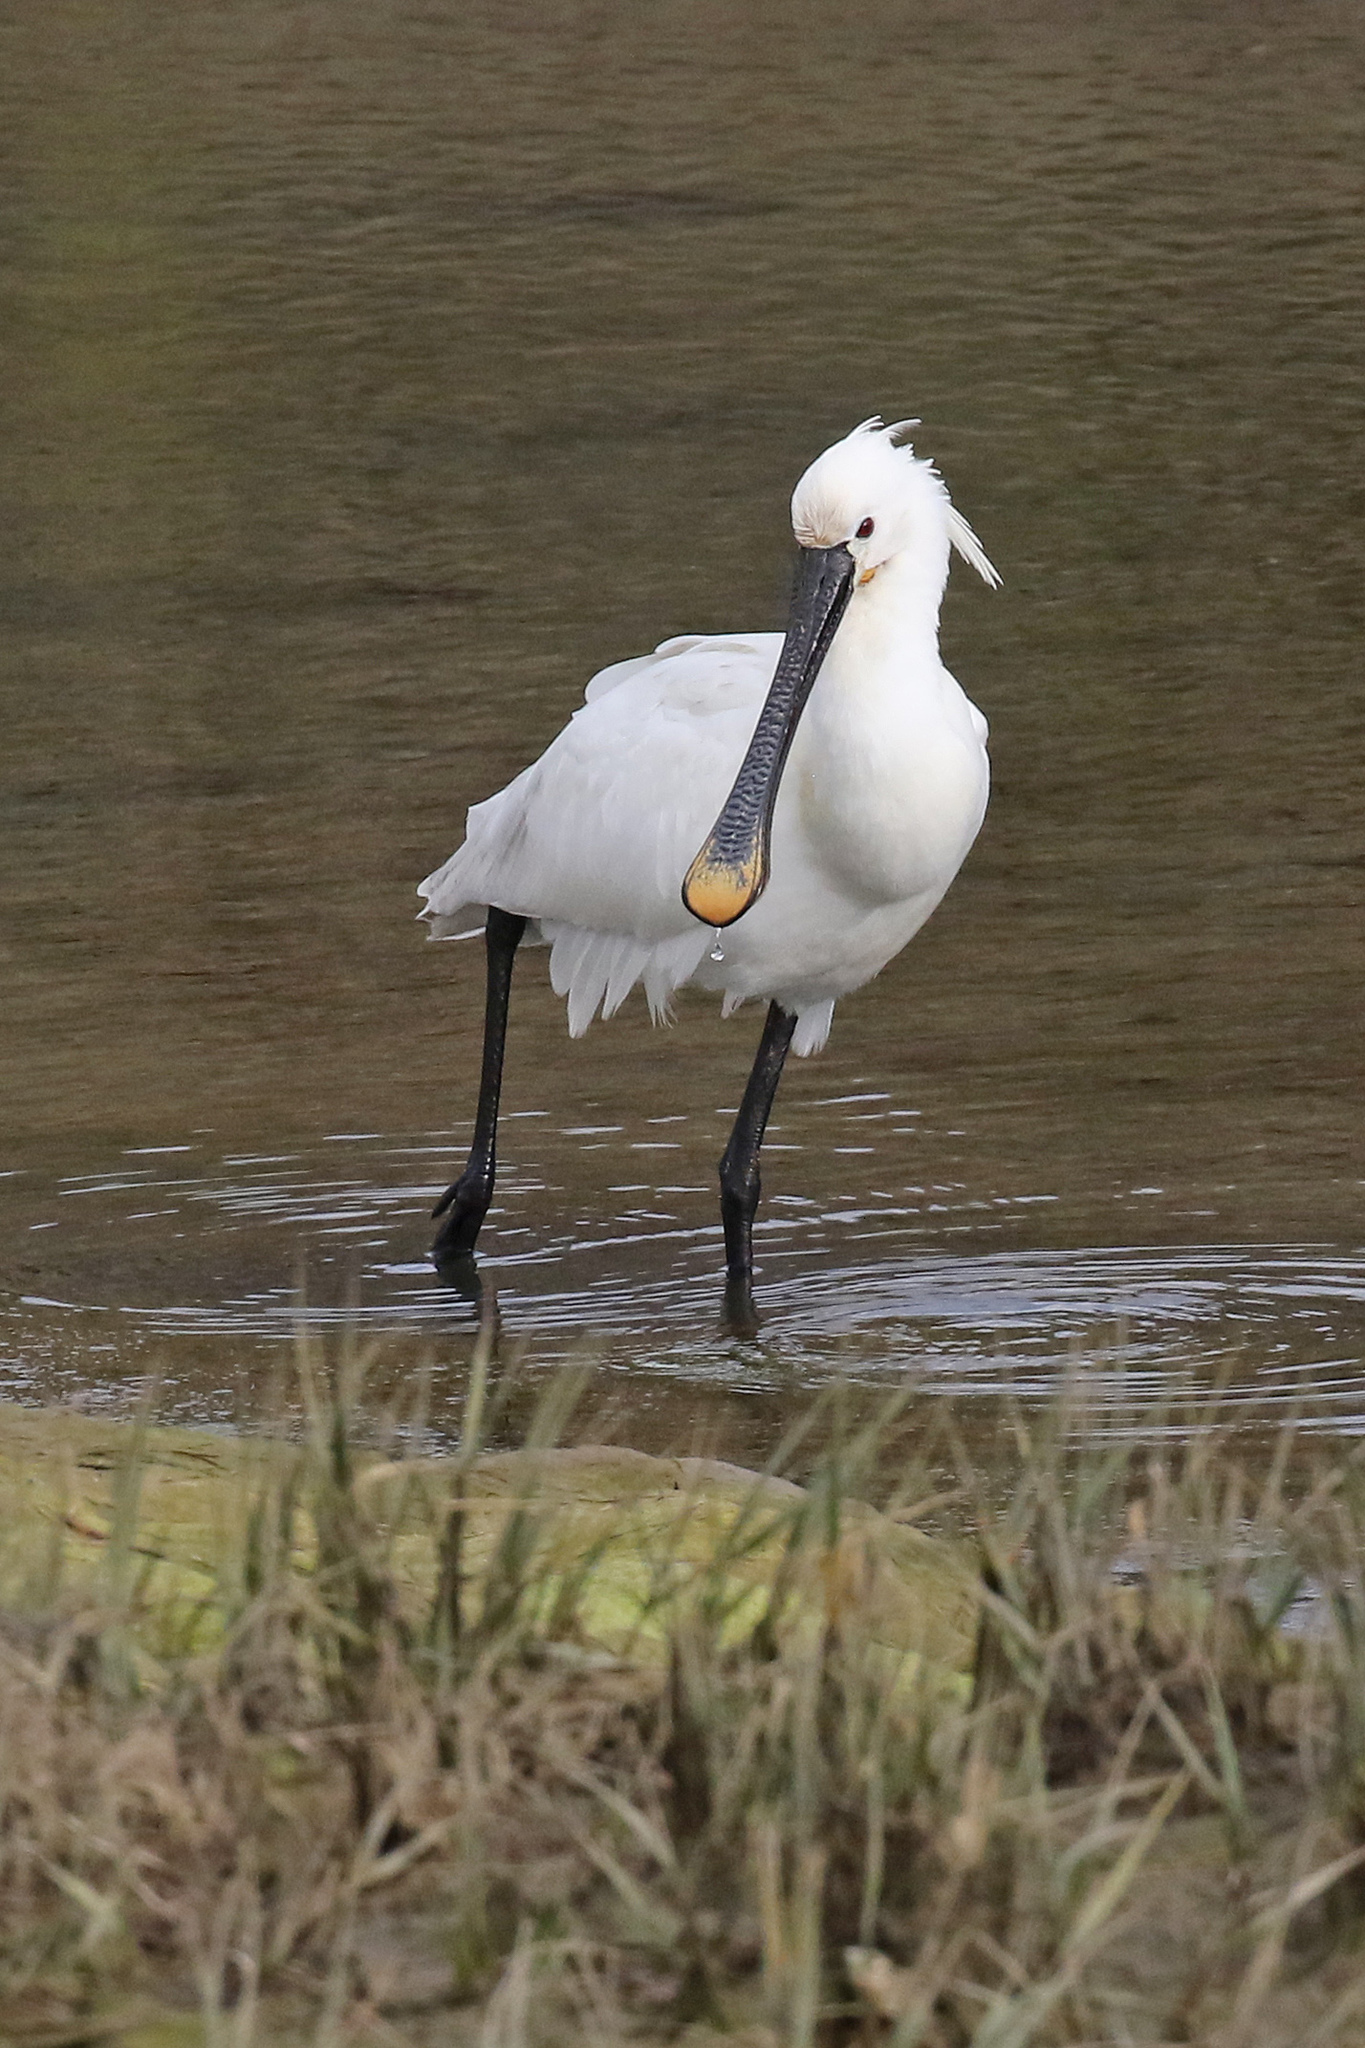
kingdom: Animalia
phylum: Chordata
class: Aves
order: Pelecaniformes
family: Threskiornithidae
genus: Platalea
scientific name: Platalea leucorodia
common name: Eurasian spoonbill
